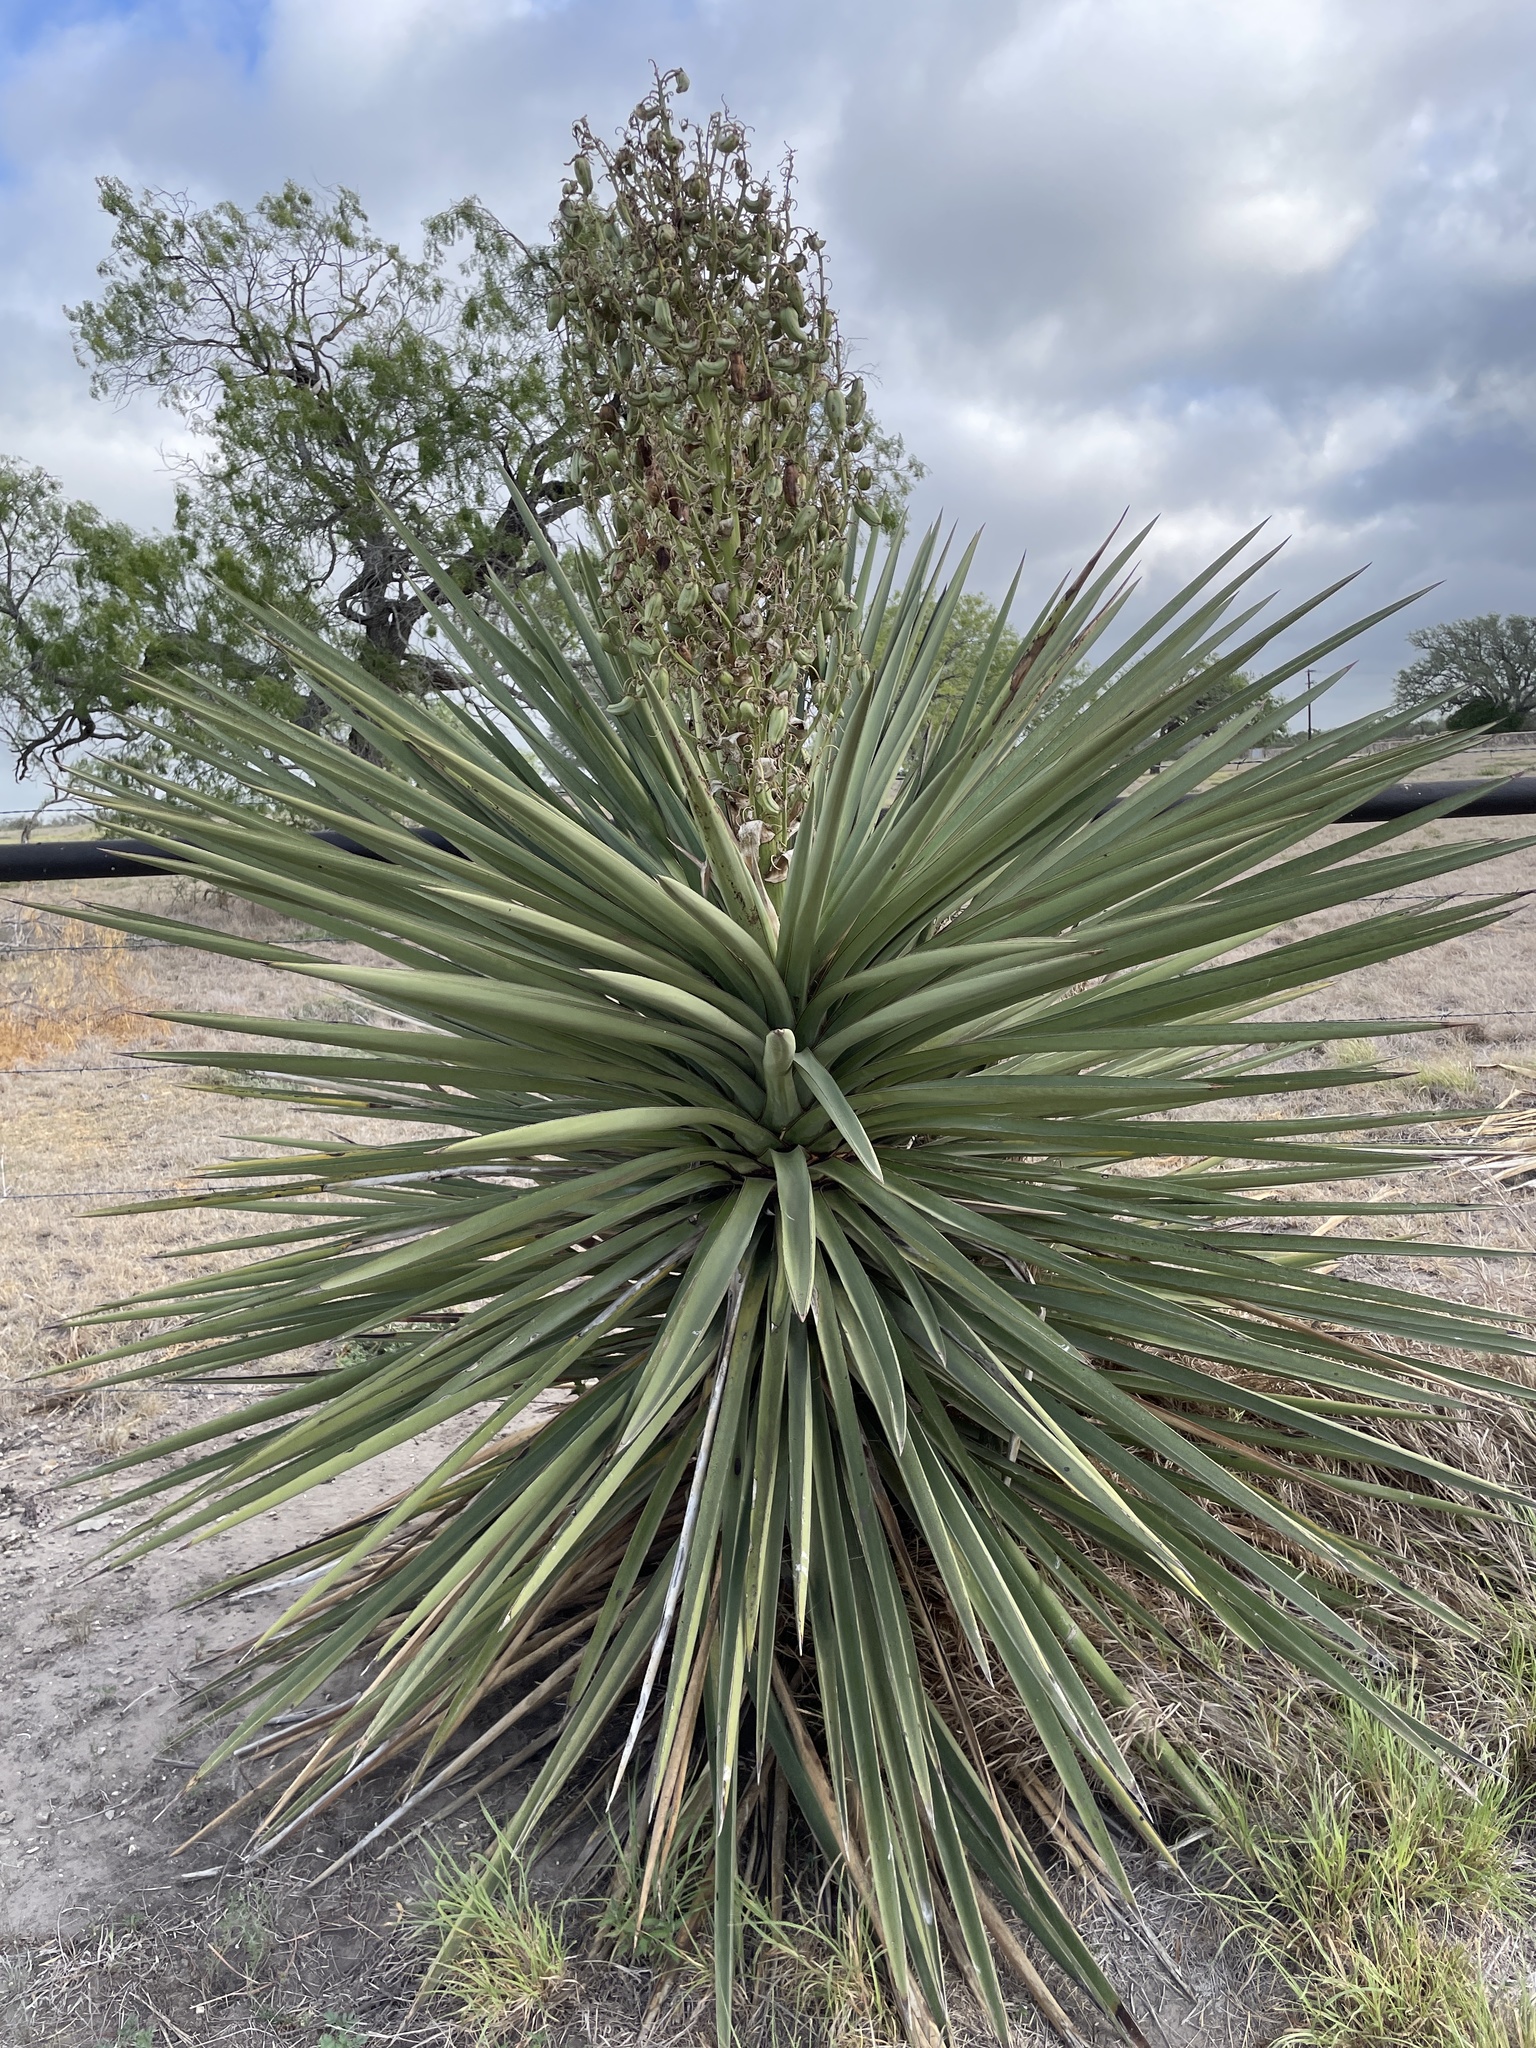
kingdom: Plantae
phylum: Tracheophyta
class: Liliopsida
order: Asparagales
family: Asparagaceae
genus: Yucca
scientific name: Yucca treculiana
